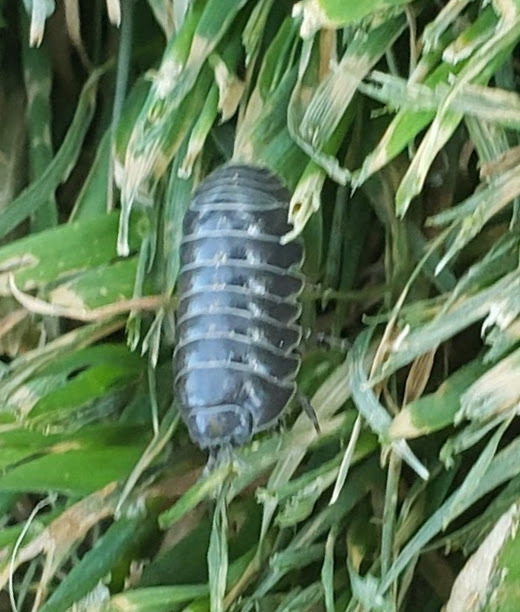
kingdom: Animalia
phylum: Arthropoda
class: Malacostraca
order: Isopoda
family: Armadillidiidae
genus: Armadillidium
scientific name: Armadillidium vulgare
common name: Common pill woodlouse
